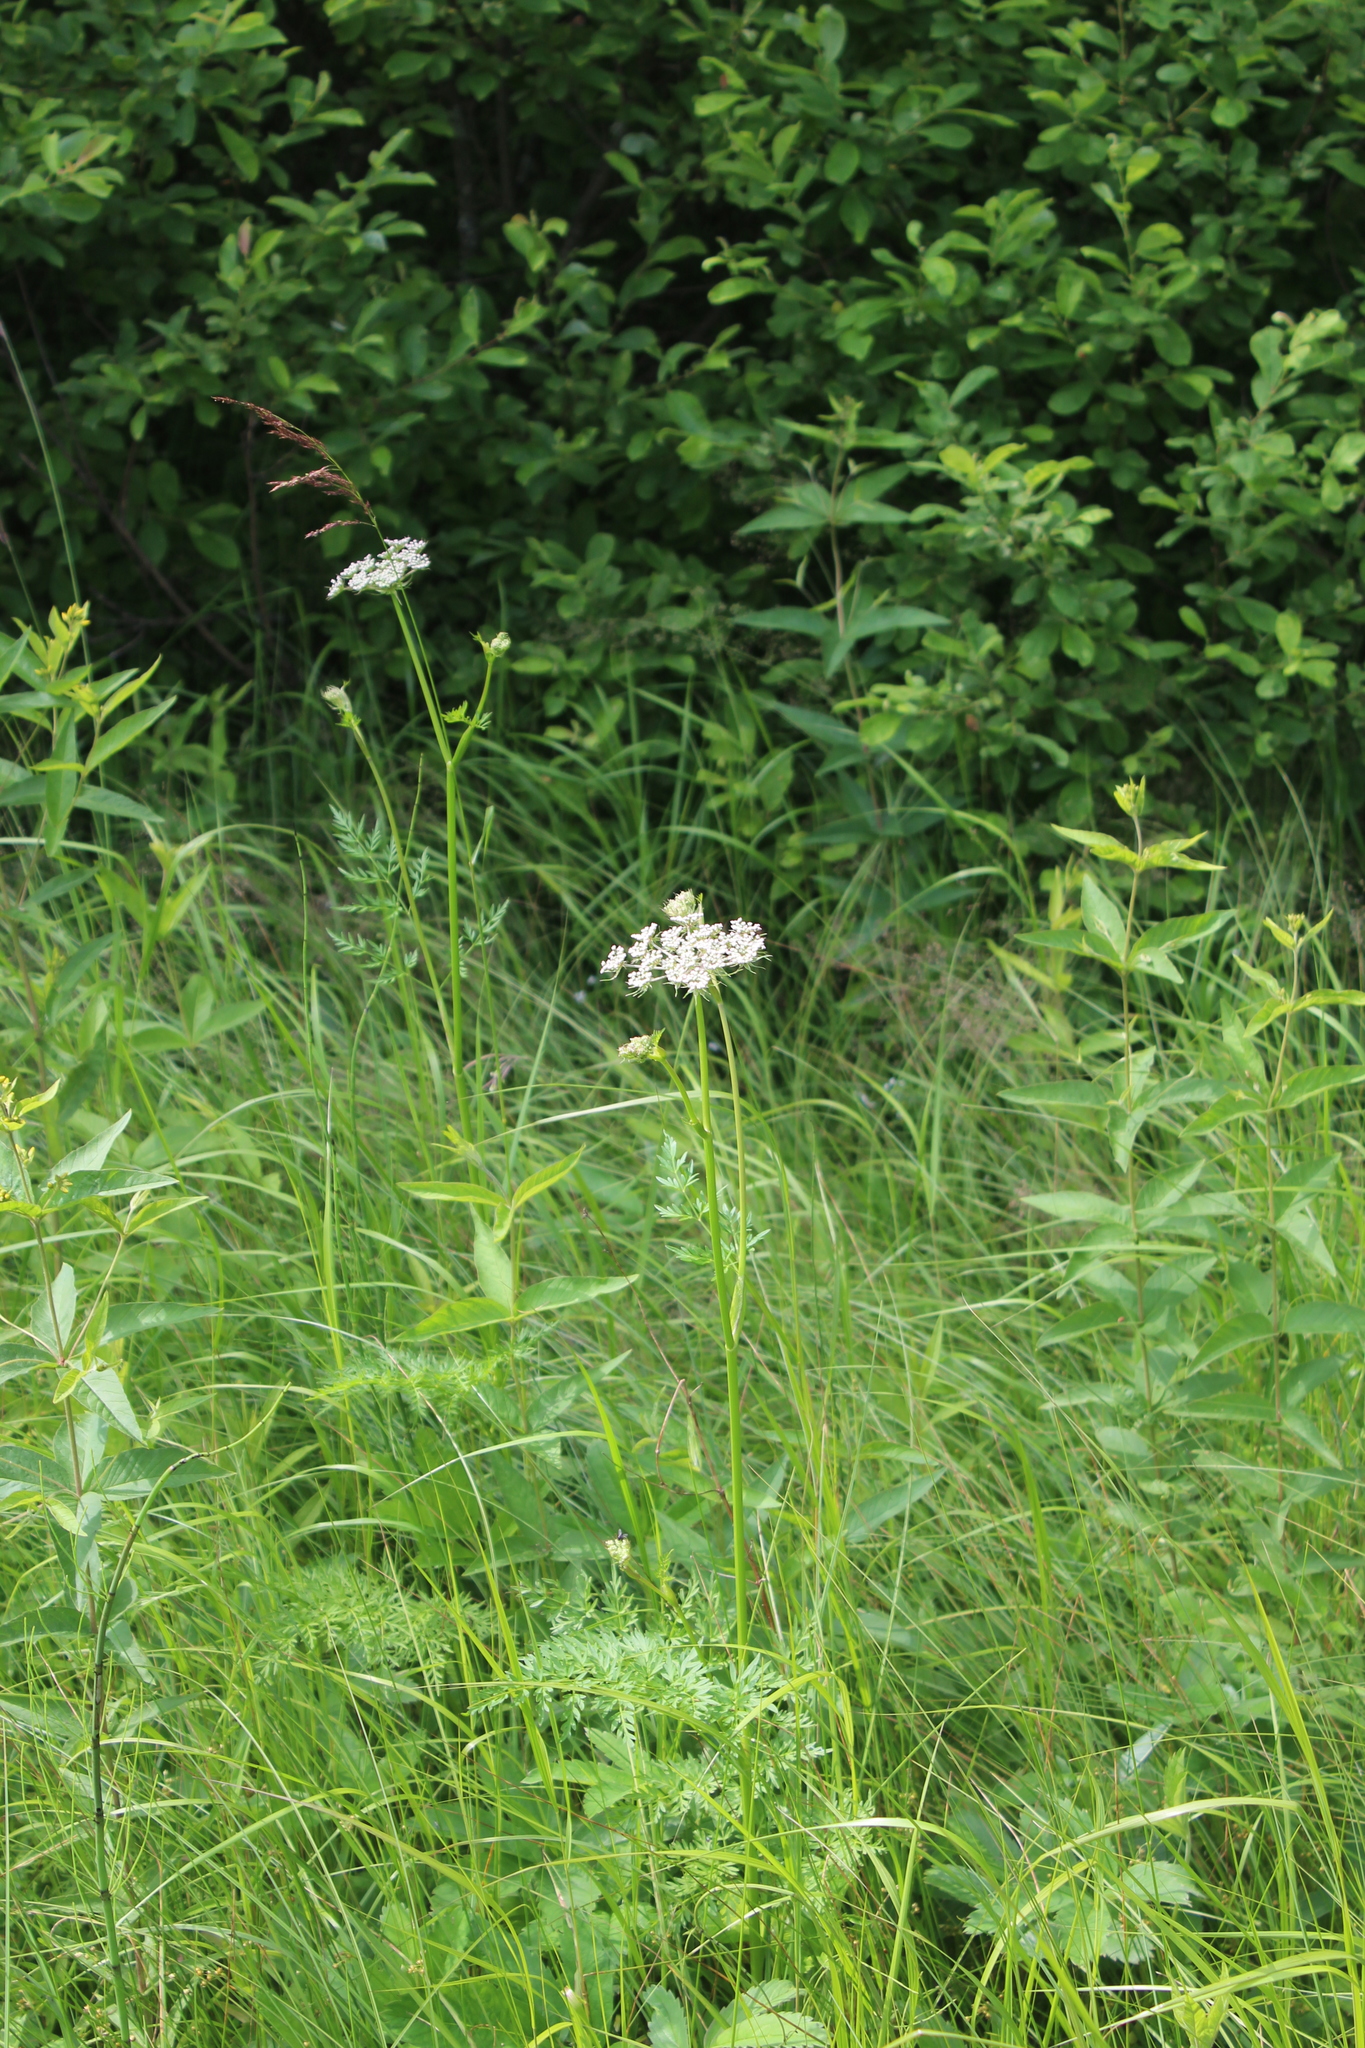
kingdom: Plantae
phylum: Tracheophyta
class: Magnoliopsida
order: Apiales
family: Apiaceae
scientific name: Apiaceae
